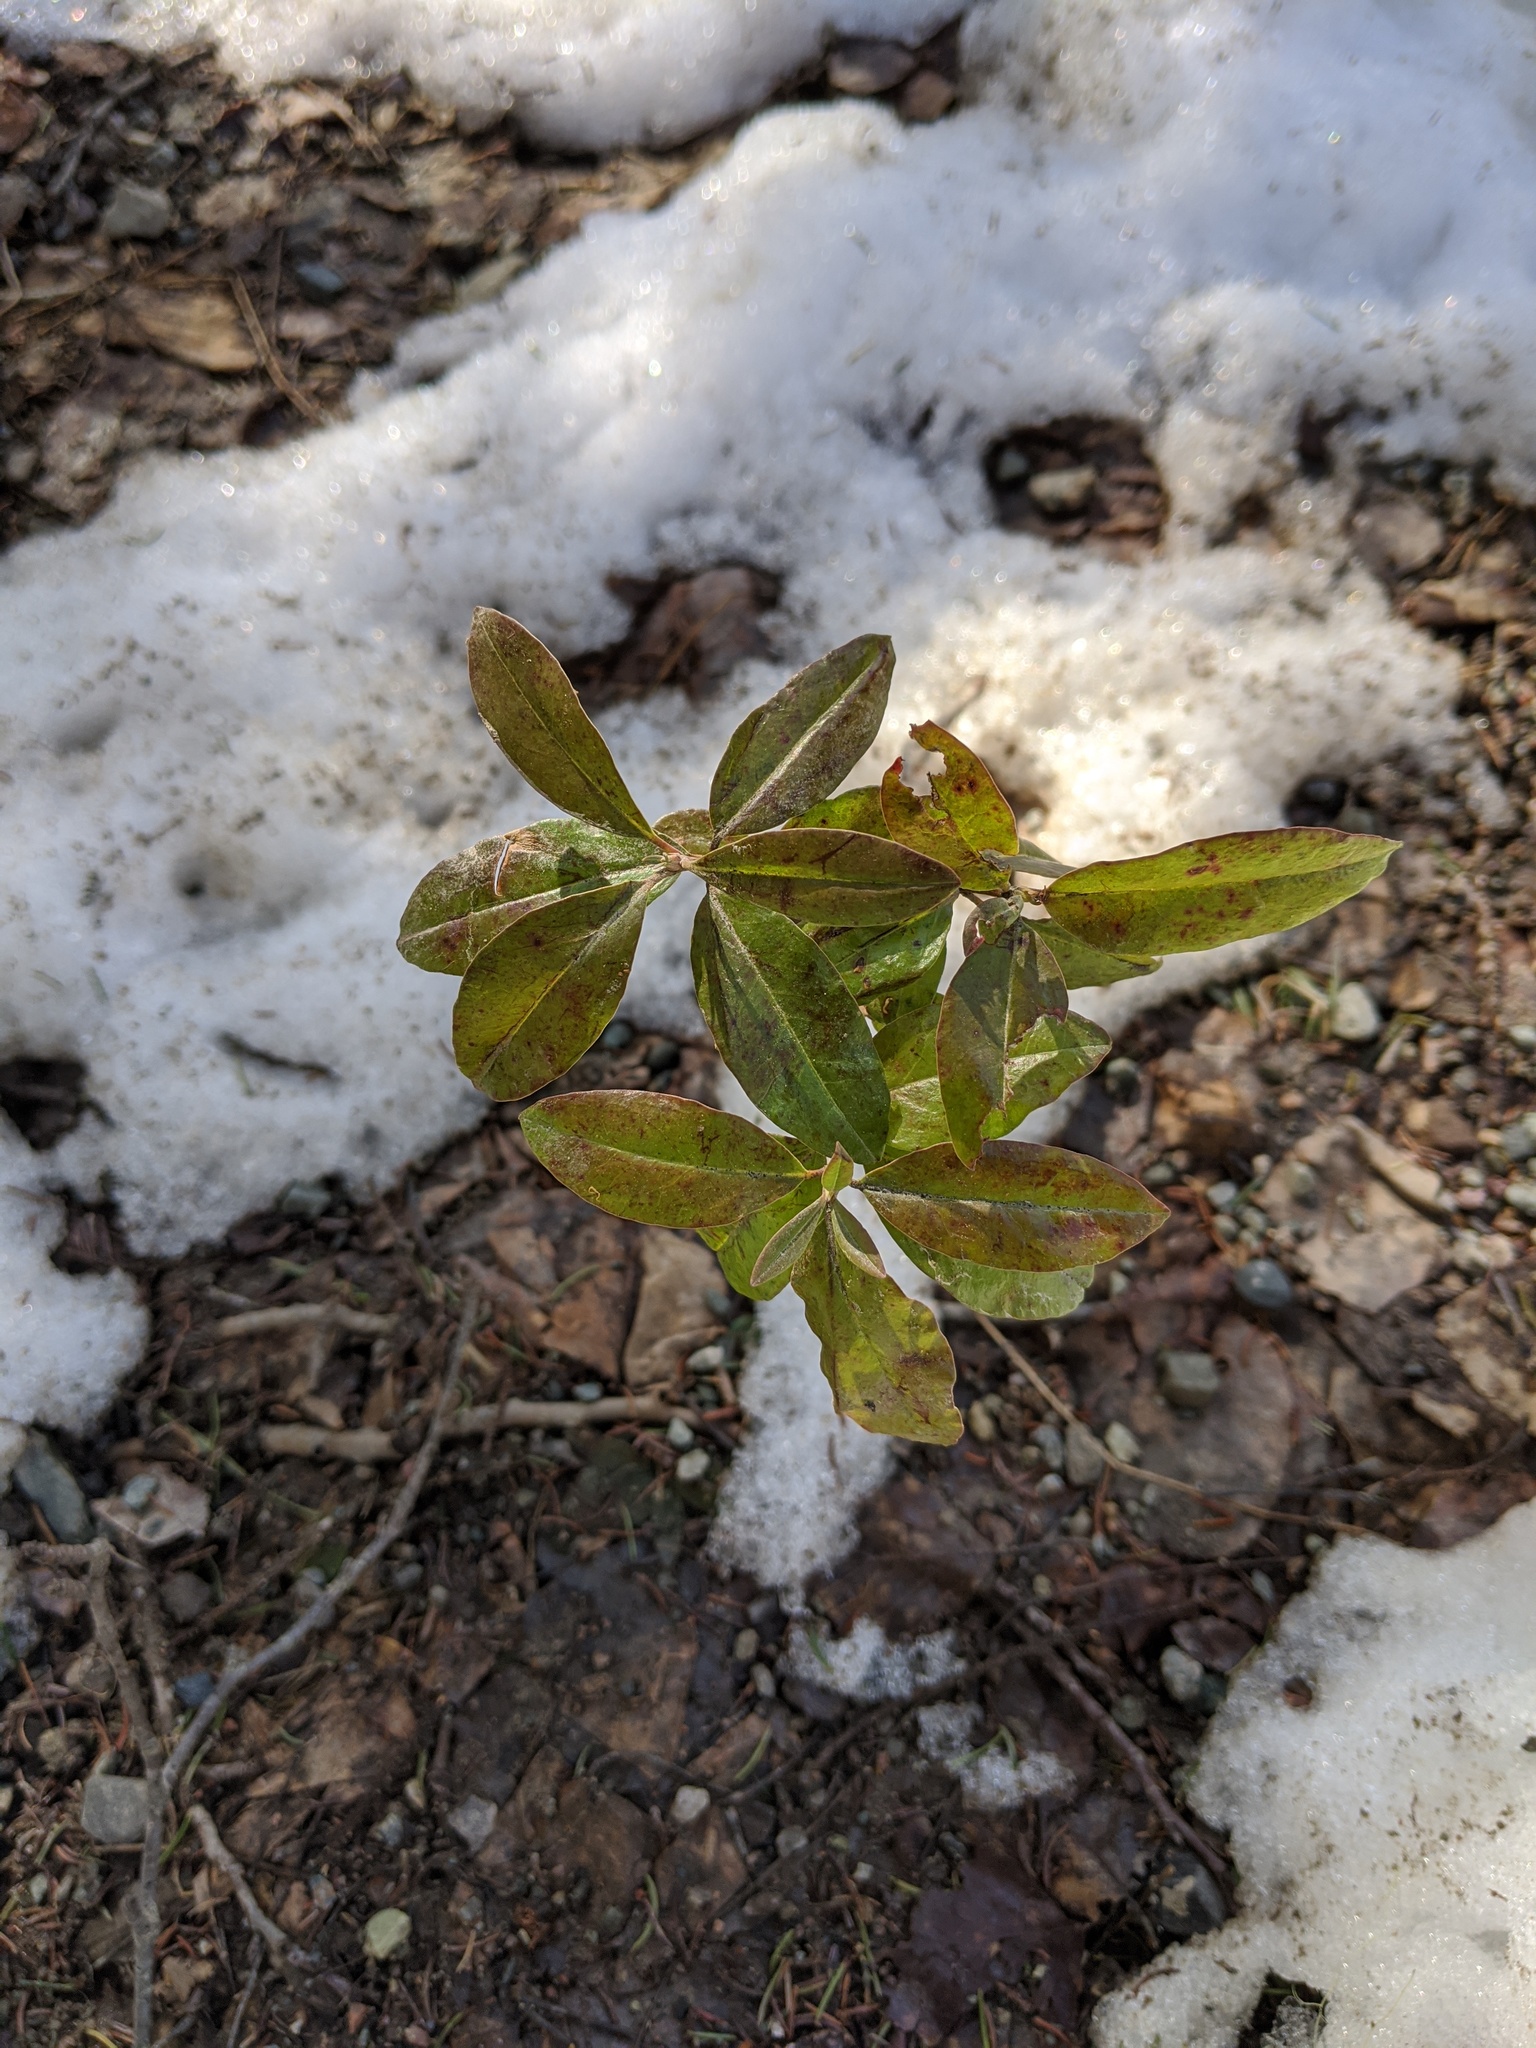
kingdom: Plantae
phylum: Tracheophyta
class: Magnoliopsida
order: Ericales
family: Ericaceae
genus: Kalmia
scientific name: Kalmia angustifolia
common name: Sheep-laurel
